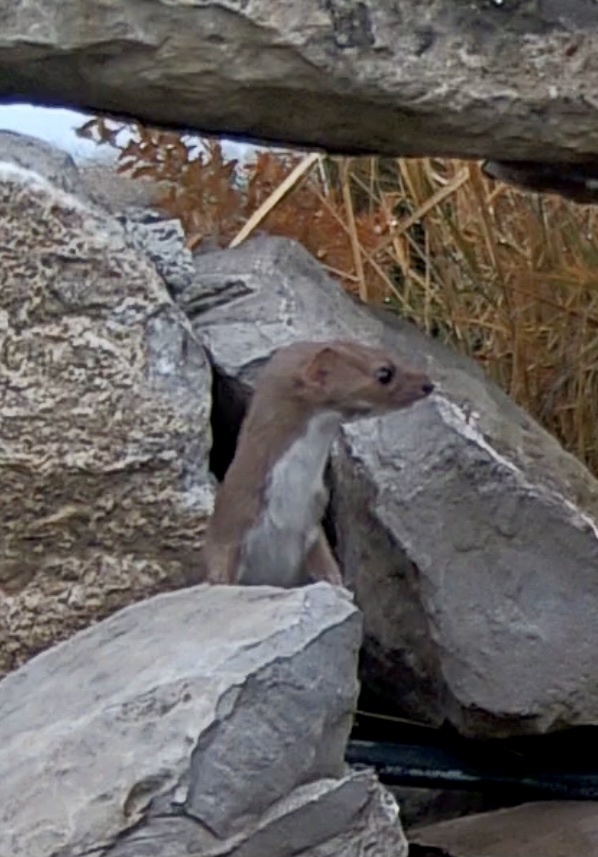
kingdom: Animalia
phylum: Chordata
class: Mammalia
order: Carnivora
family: Mustelidae
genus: Mustela
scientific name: Mustela nivalis
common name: Least weasel
